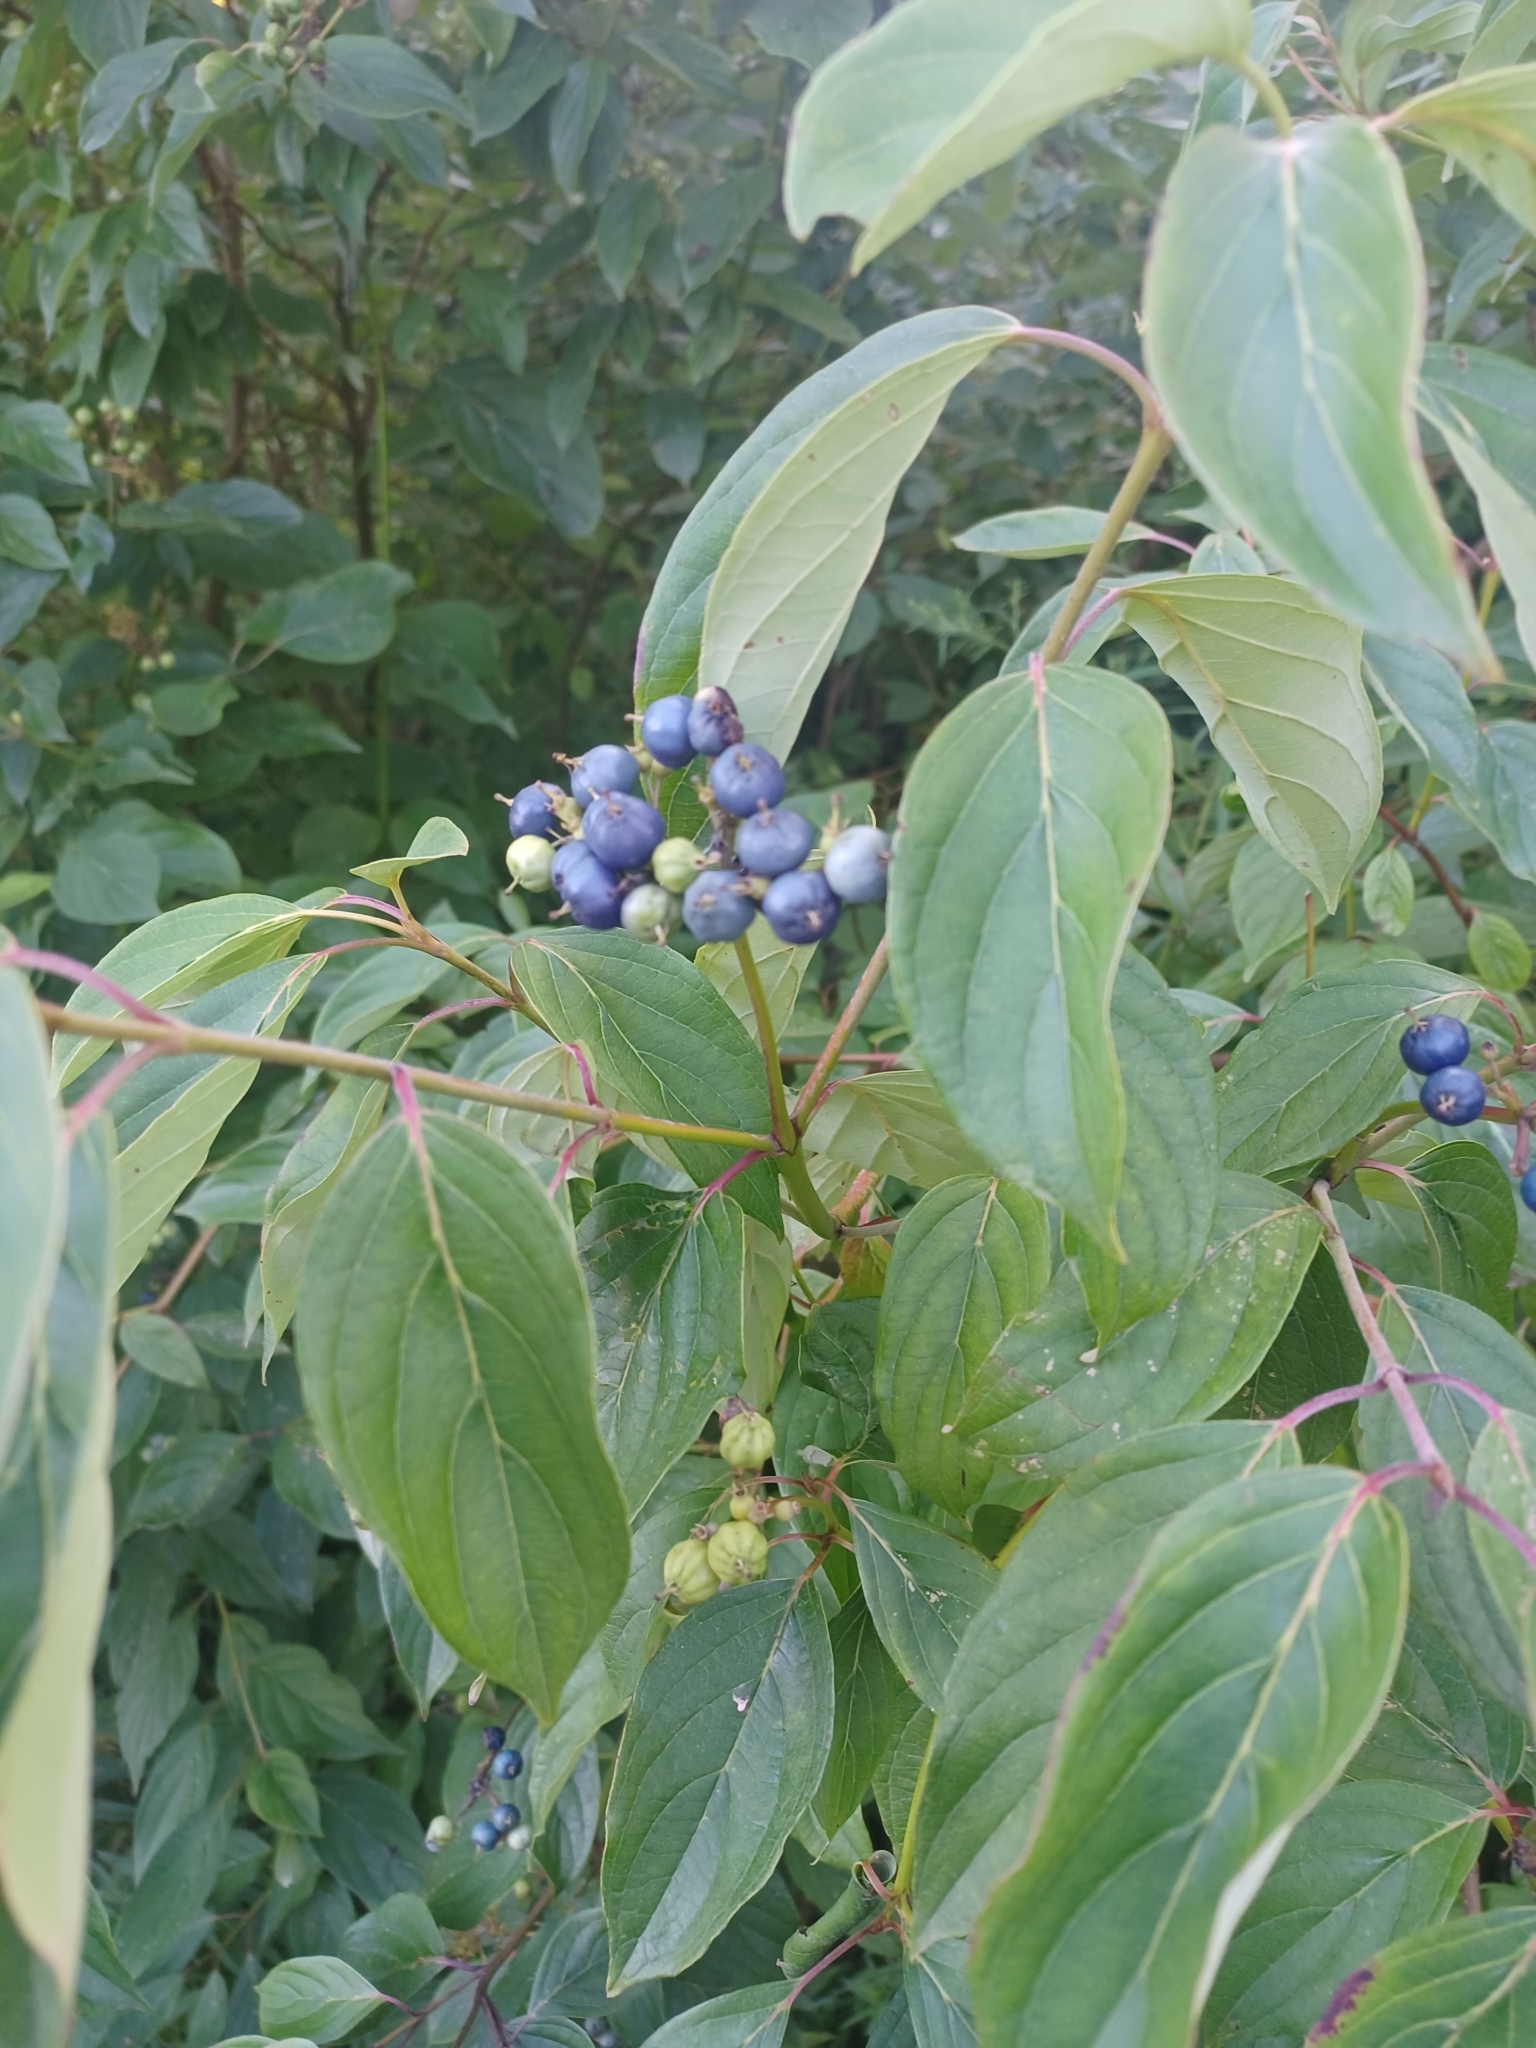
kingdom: Plantae
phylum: Tracheophyta
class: Magnoliopsida
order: Cornales
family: Cornaceae
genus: Cornus
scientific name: Cornus amomum
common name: Silky dogwood
